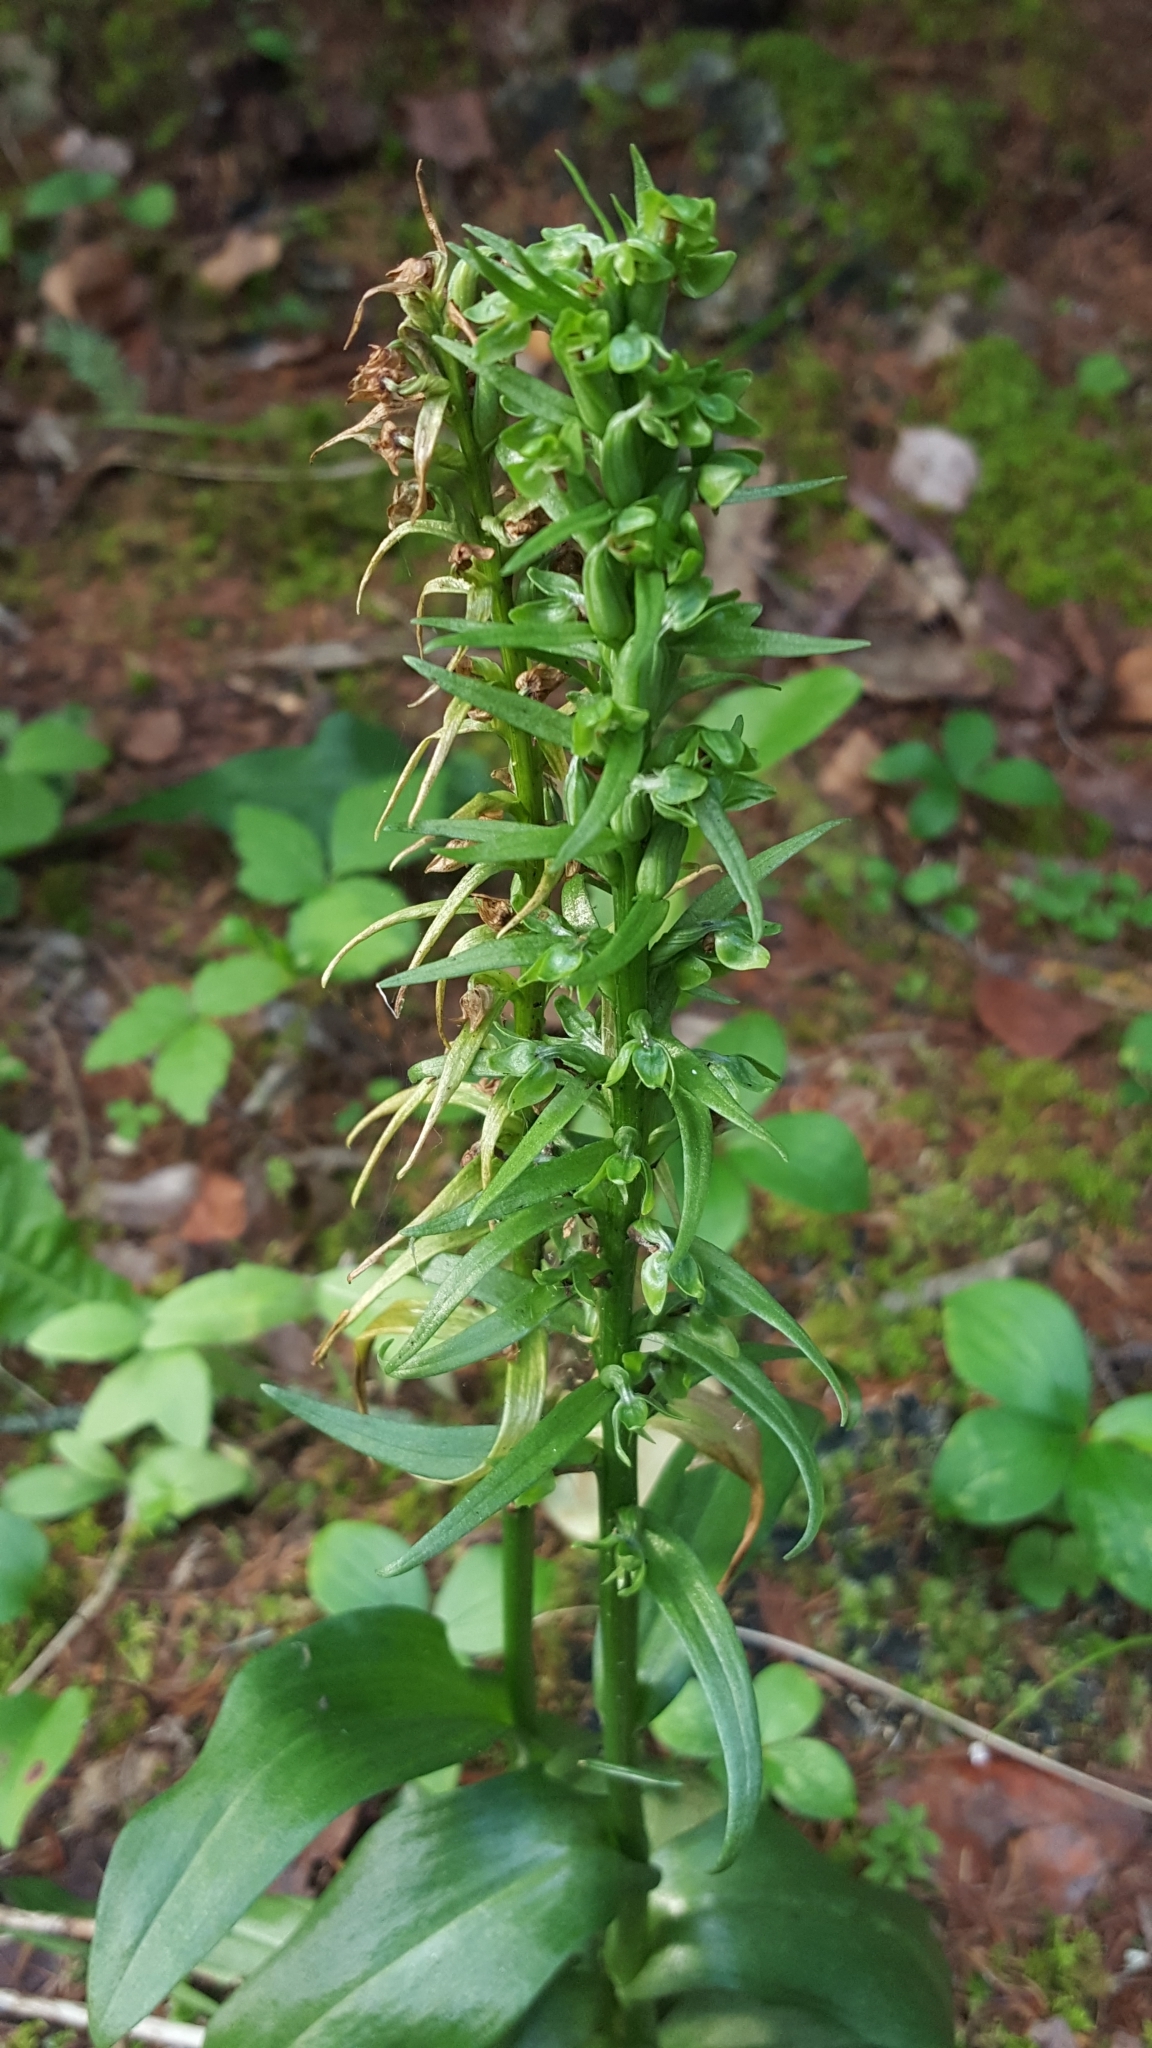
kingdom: Plantae
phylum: Tracheophyta
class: Liliopsida
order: Asparagales
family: Orchidaceae
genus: Dactylorhiza
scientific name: Dactylorhiza viridis
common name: Longbract frog orchid
